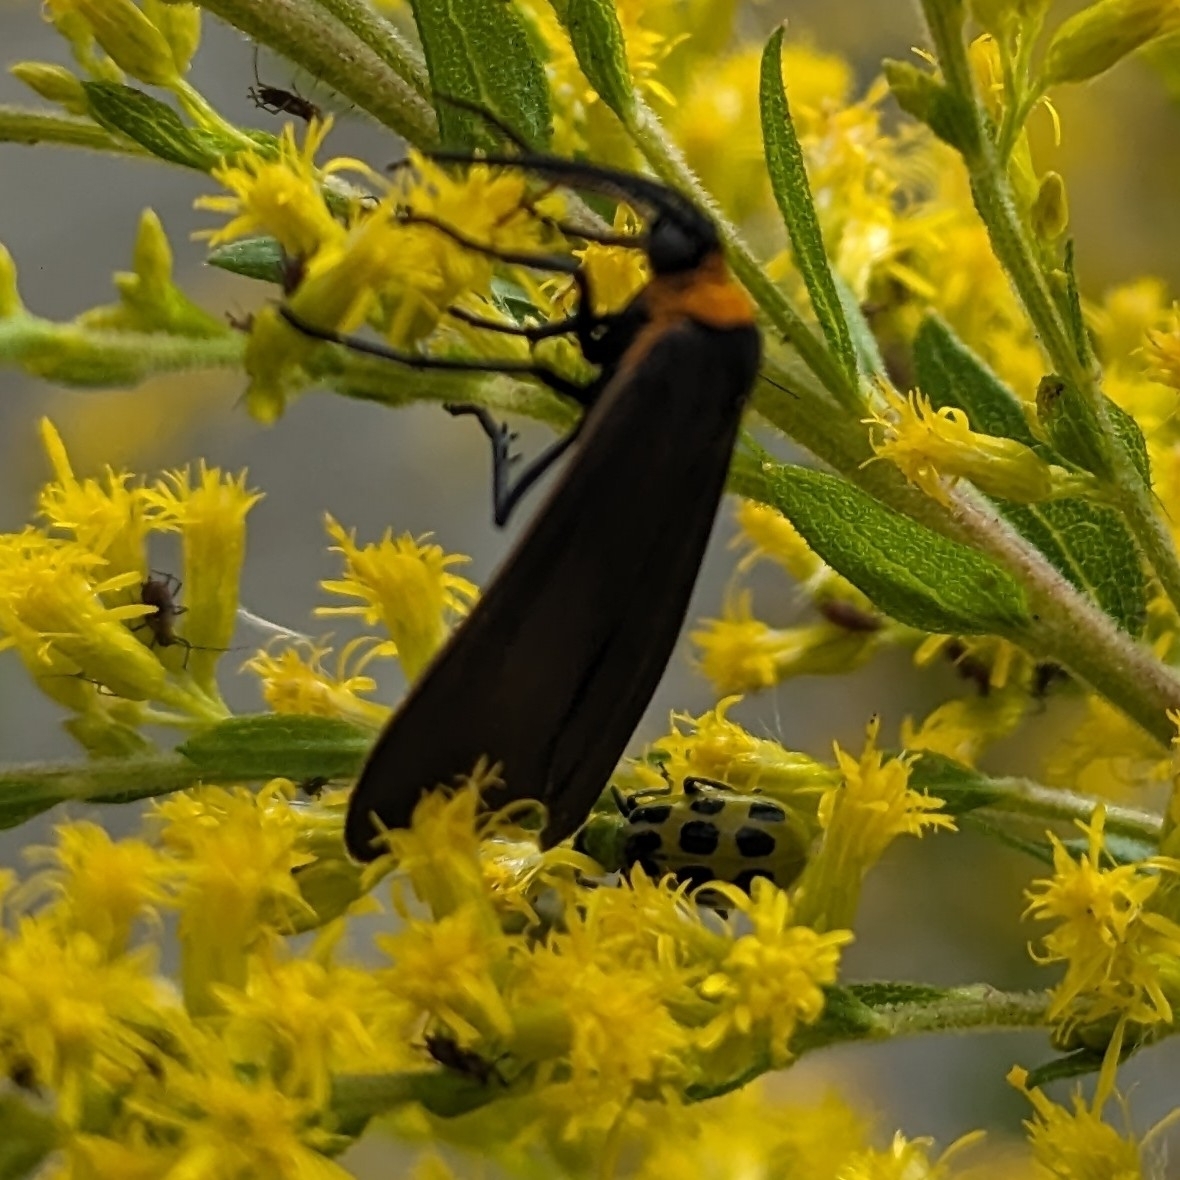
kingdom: Animalia
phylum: Arthropoda
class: Insecta
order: Lepidoptera
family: Erebidae
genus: Cisseps
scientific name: Cisseps fulvicollis
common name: Yellow-collared scape moth
